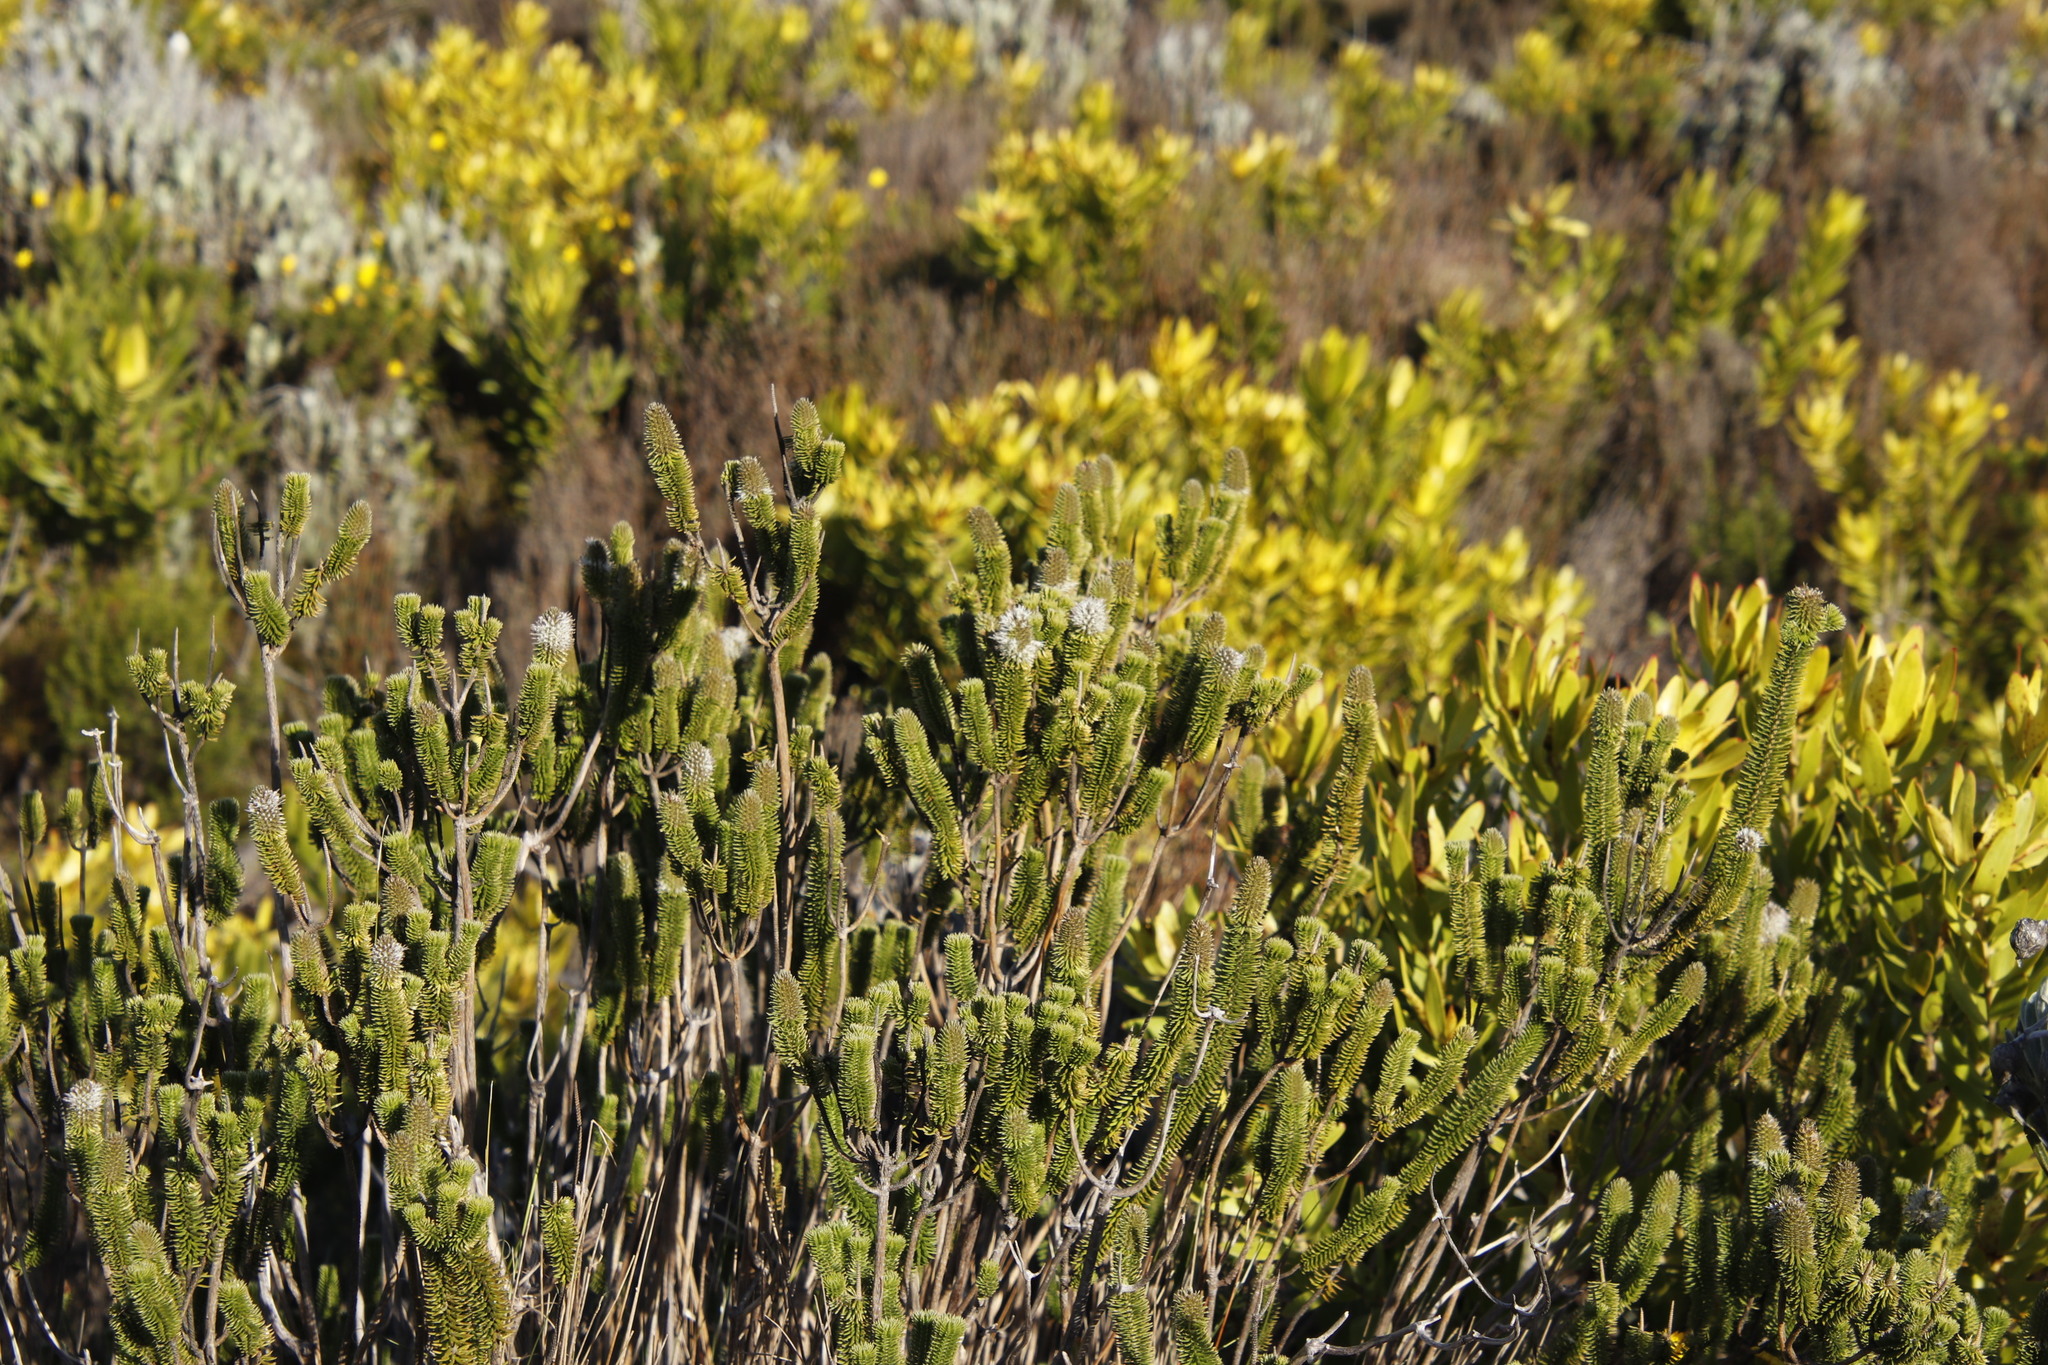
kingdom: Plantae
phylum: Tracheophyta
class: Magnoliopsida
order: Lamiales
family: Stilbaceae
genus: Stilbe
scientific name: Stilbe vestita
